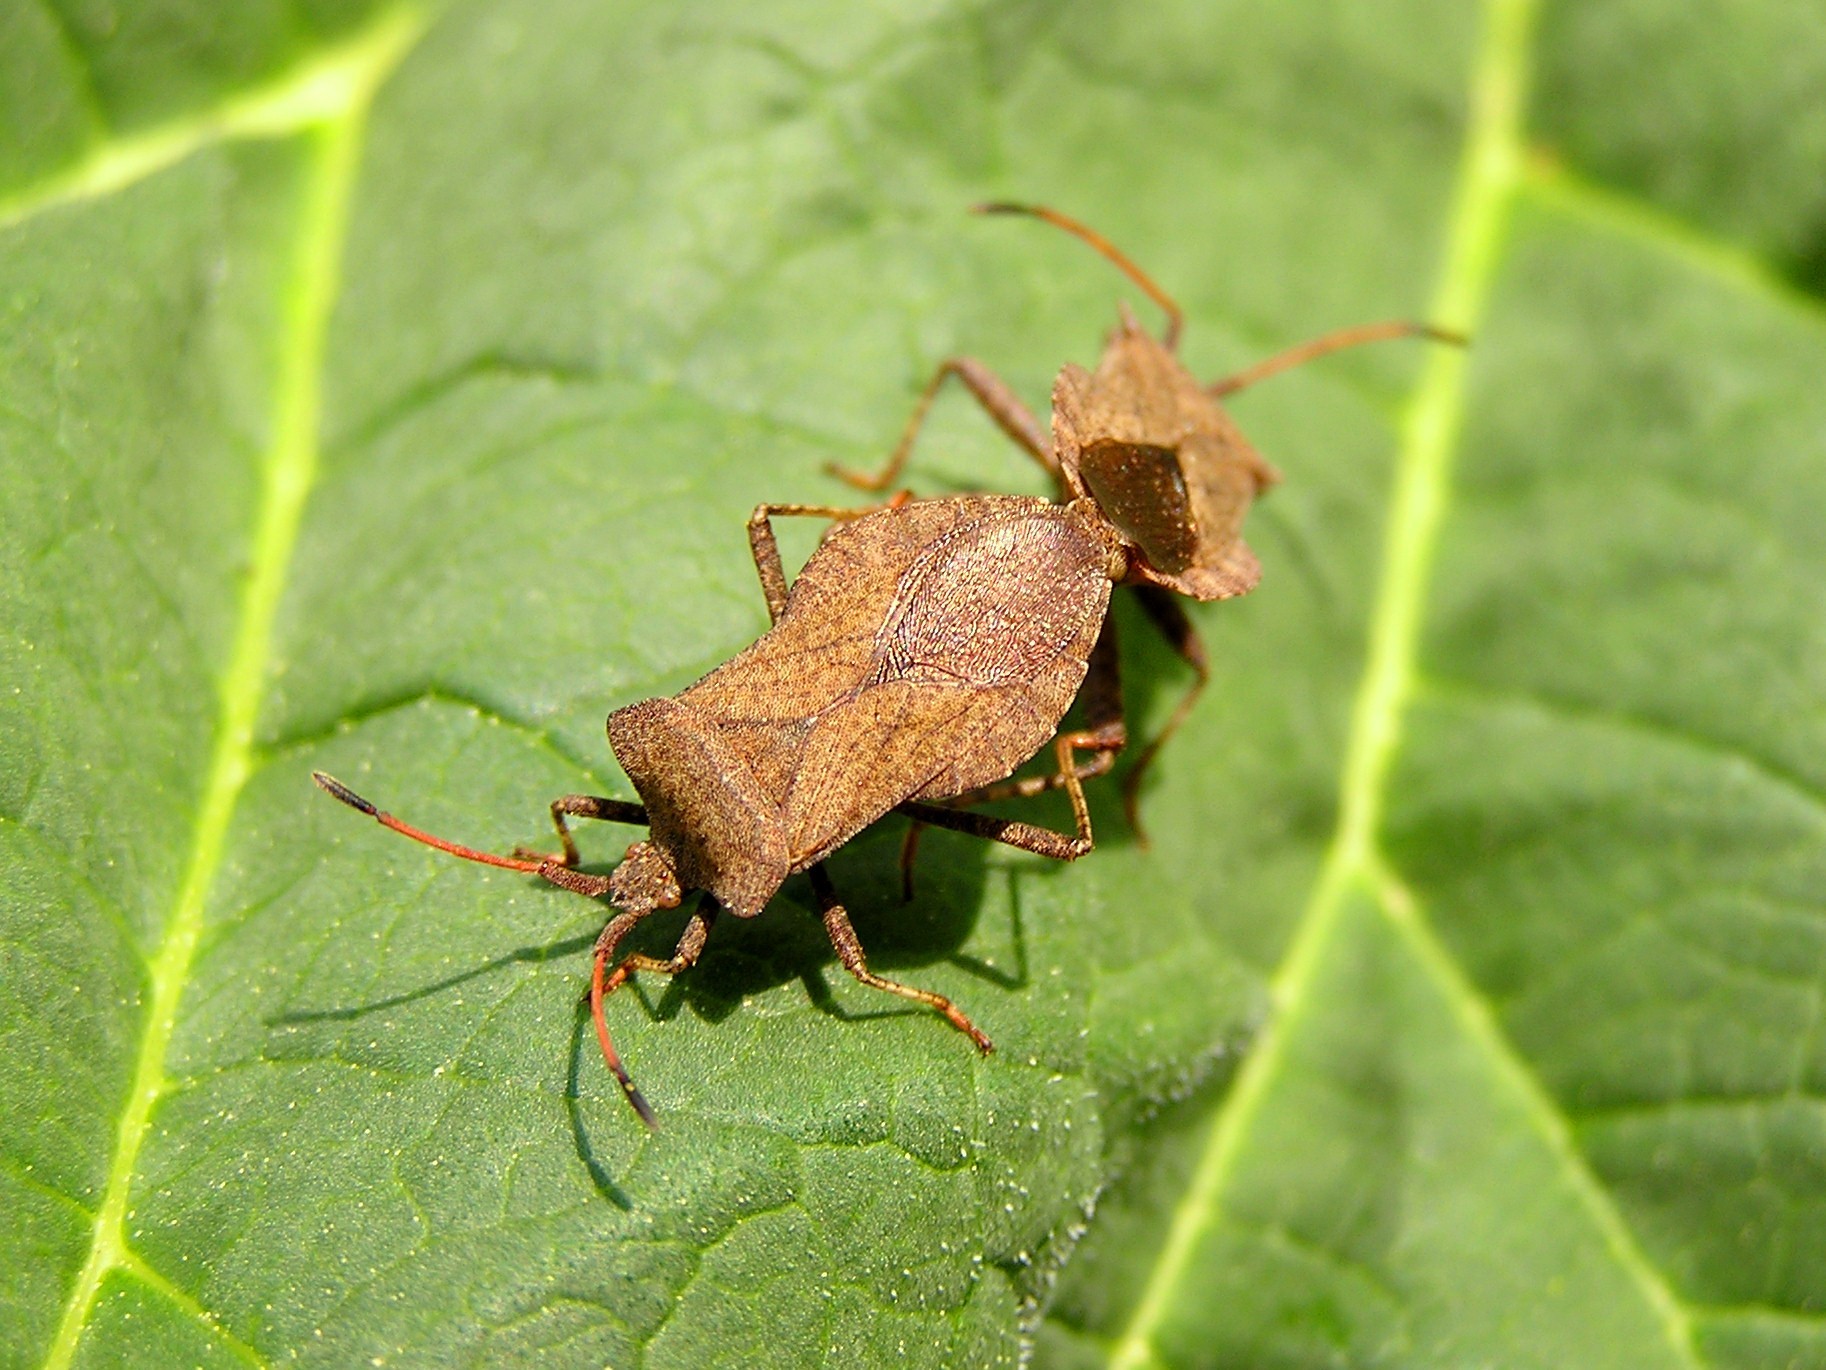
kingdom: Animalia
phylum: Arthropoda
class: Insecta
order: Hemiptera
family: Coreidae
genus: Coreus
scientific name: Coreus marginatus
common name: Dock bug
